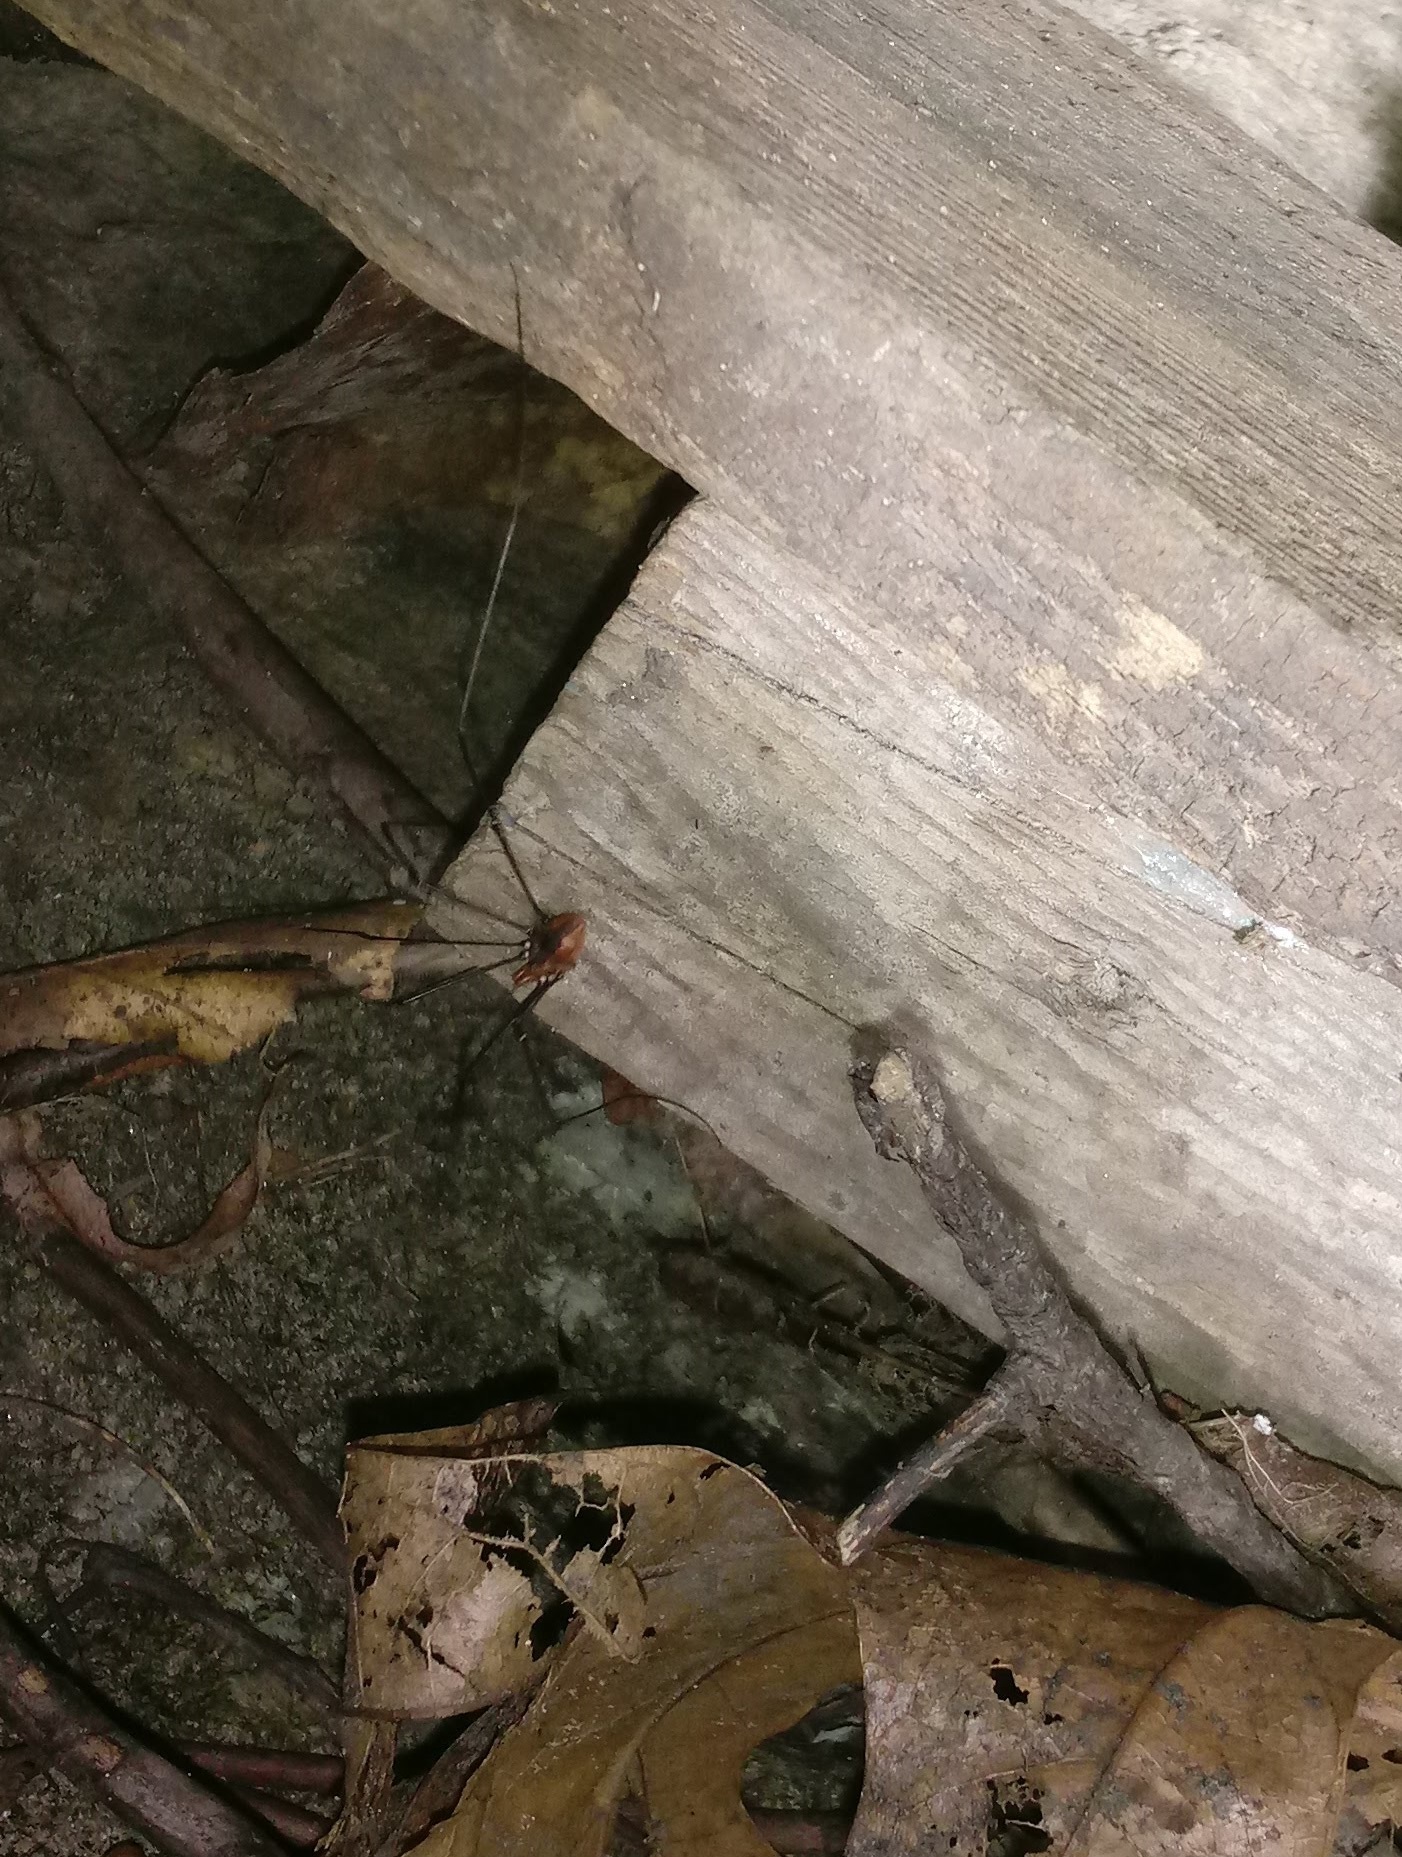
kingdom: Animalia
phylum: Arthropoda
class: Arachnida
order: Opiliones
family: Sclerosomatidae
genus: Leiobunum
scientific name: Leiobunum vittatum
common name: Eastern harvestman
